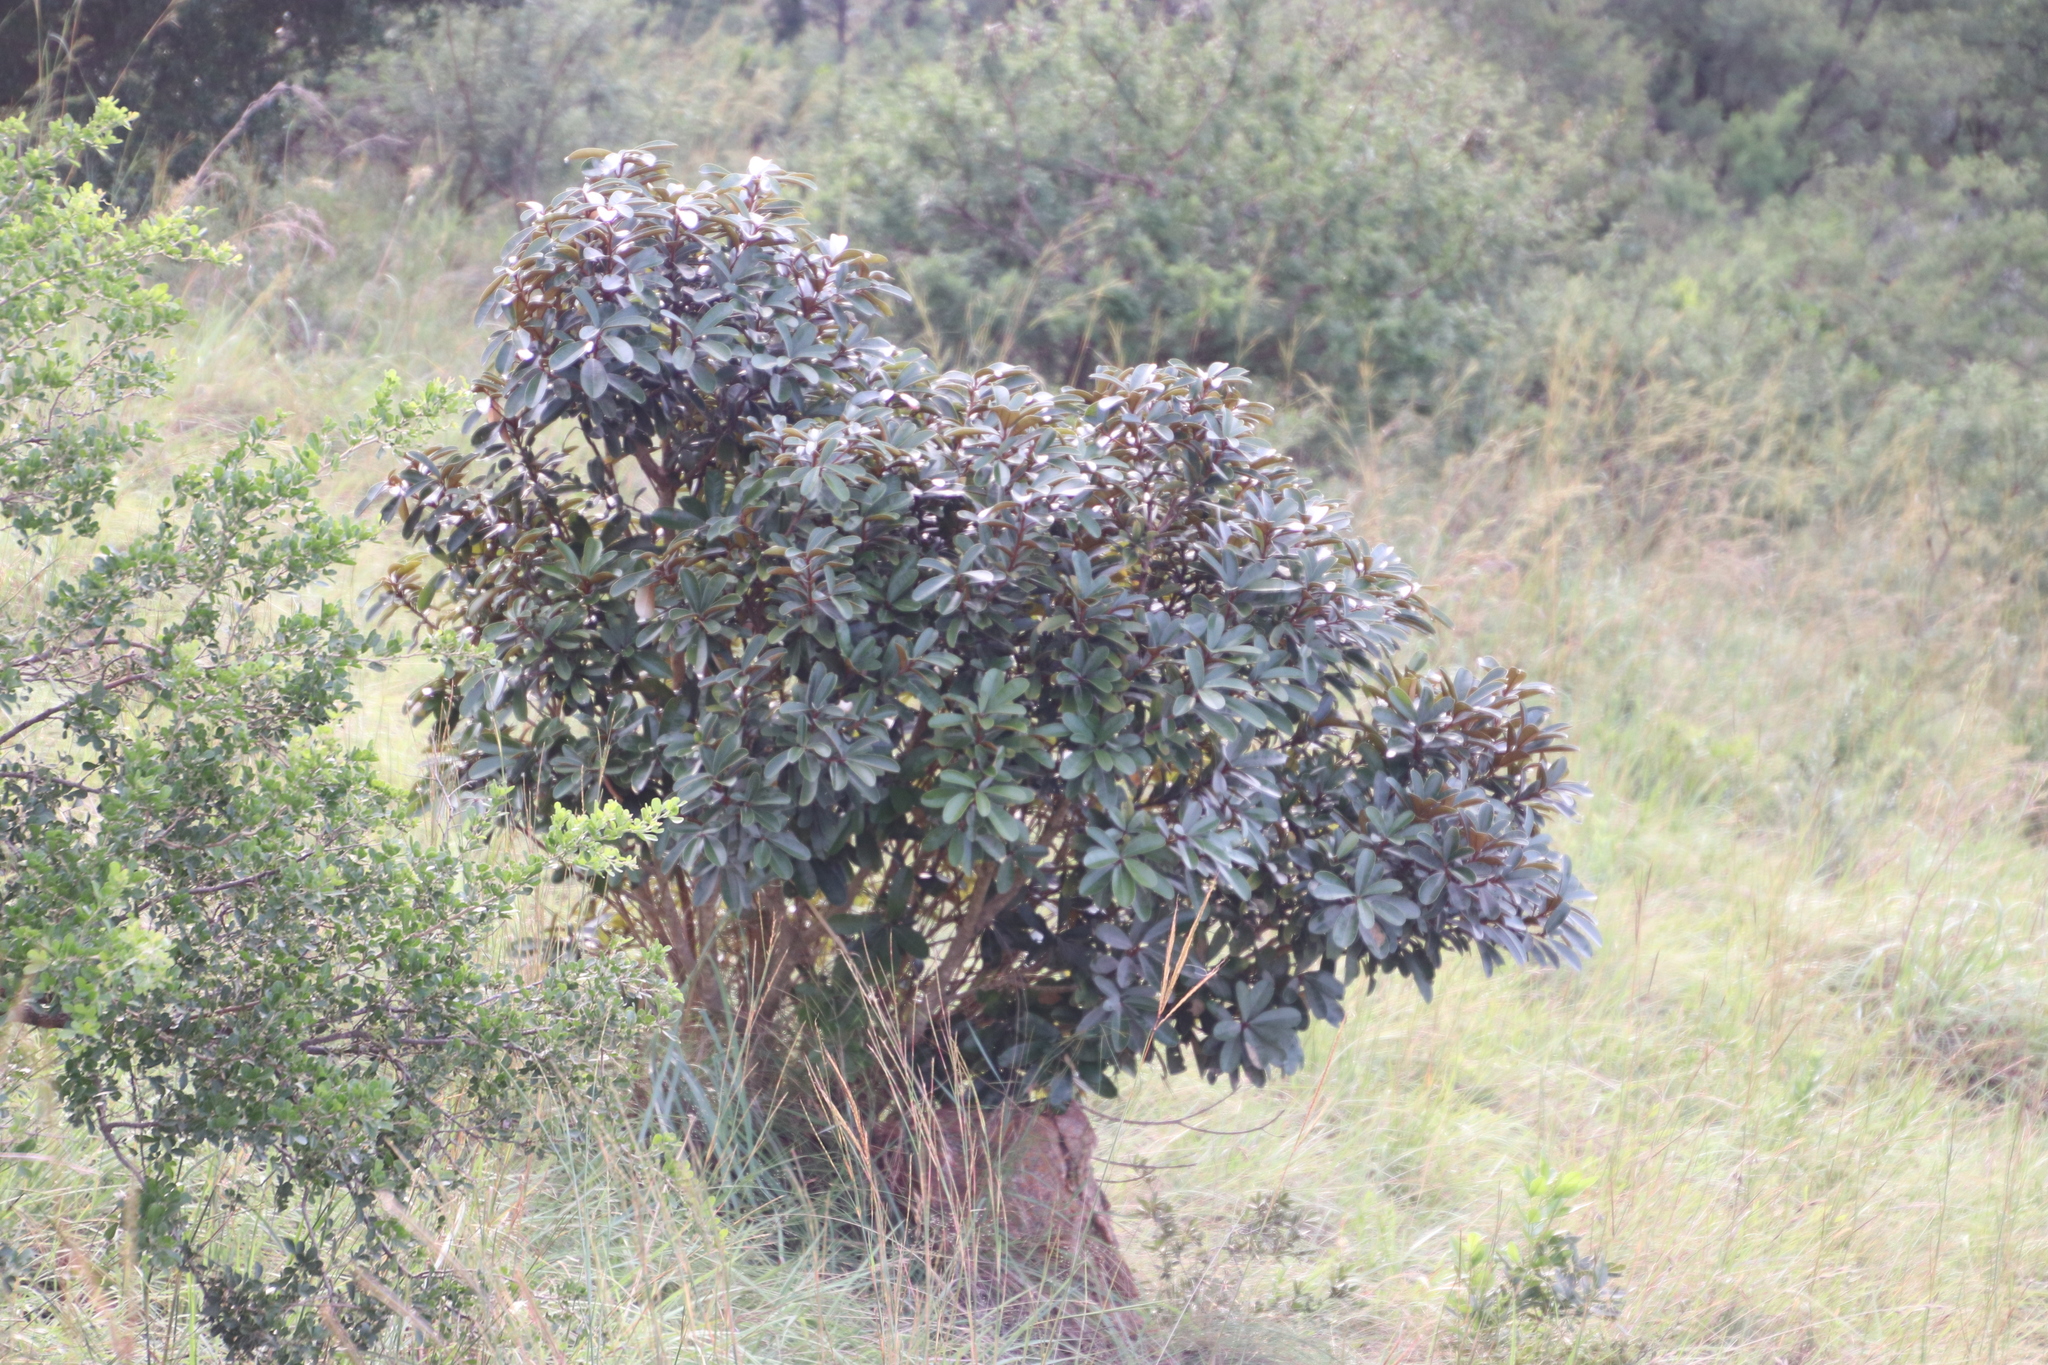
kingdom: Plantae
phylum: Tracheophyta
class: Magnoliopsida
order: Ericales
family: Sapotaceae
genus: Englerophytum
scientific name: Englerophytum magalismontanum
